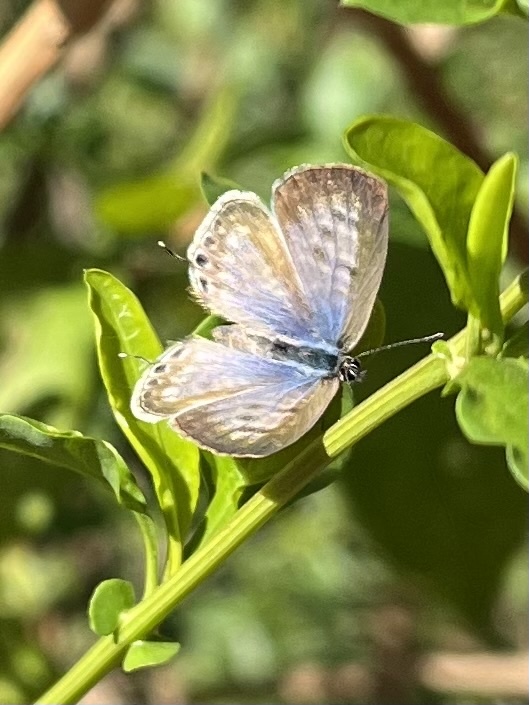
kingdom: Animalia
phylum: Arthropoda
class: Insecta
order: Lepidoptera
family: Lycaenidae
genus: Leptotes
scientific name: Leptotes
